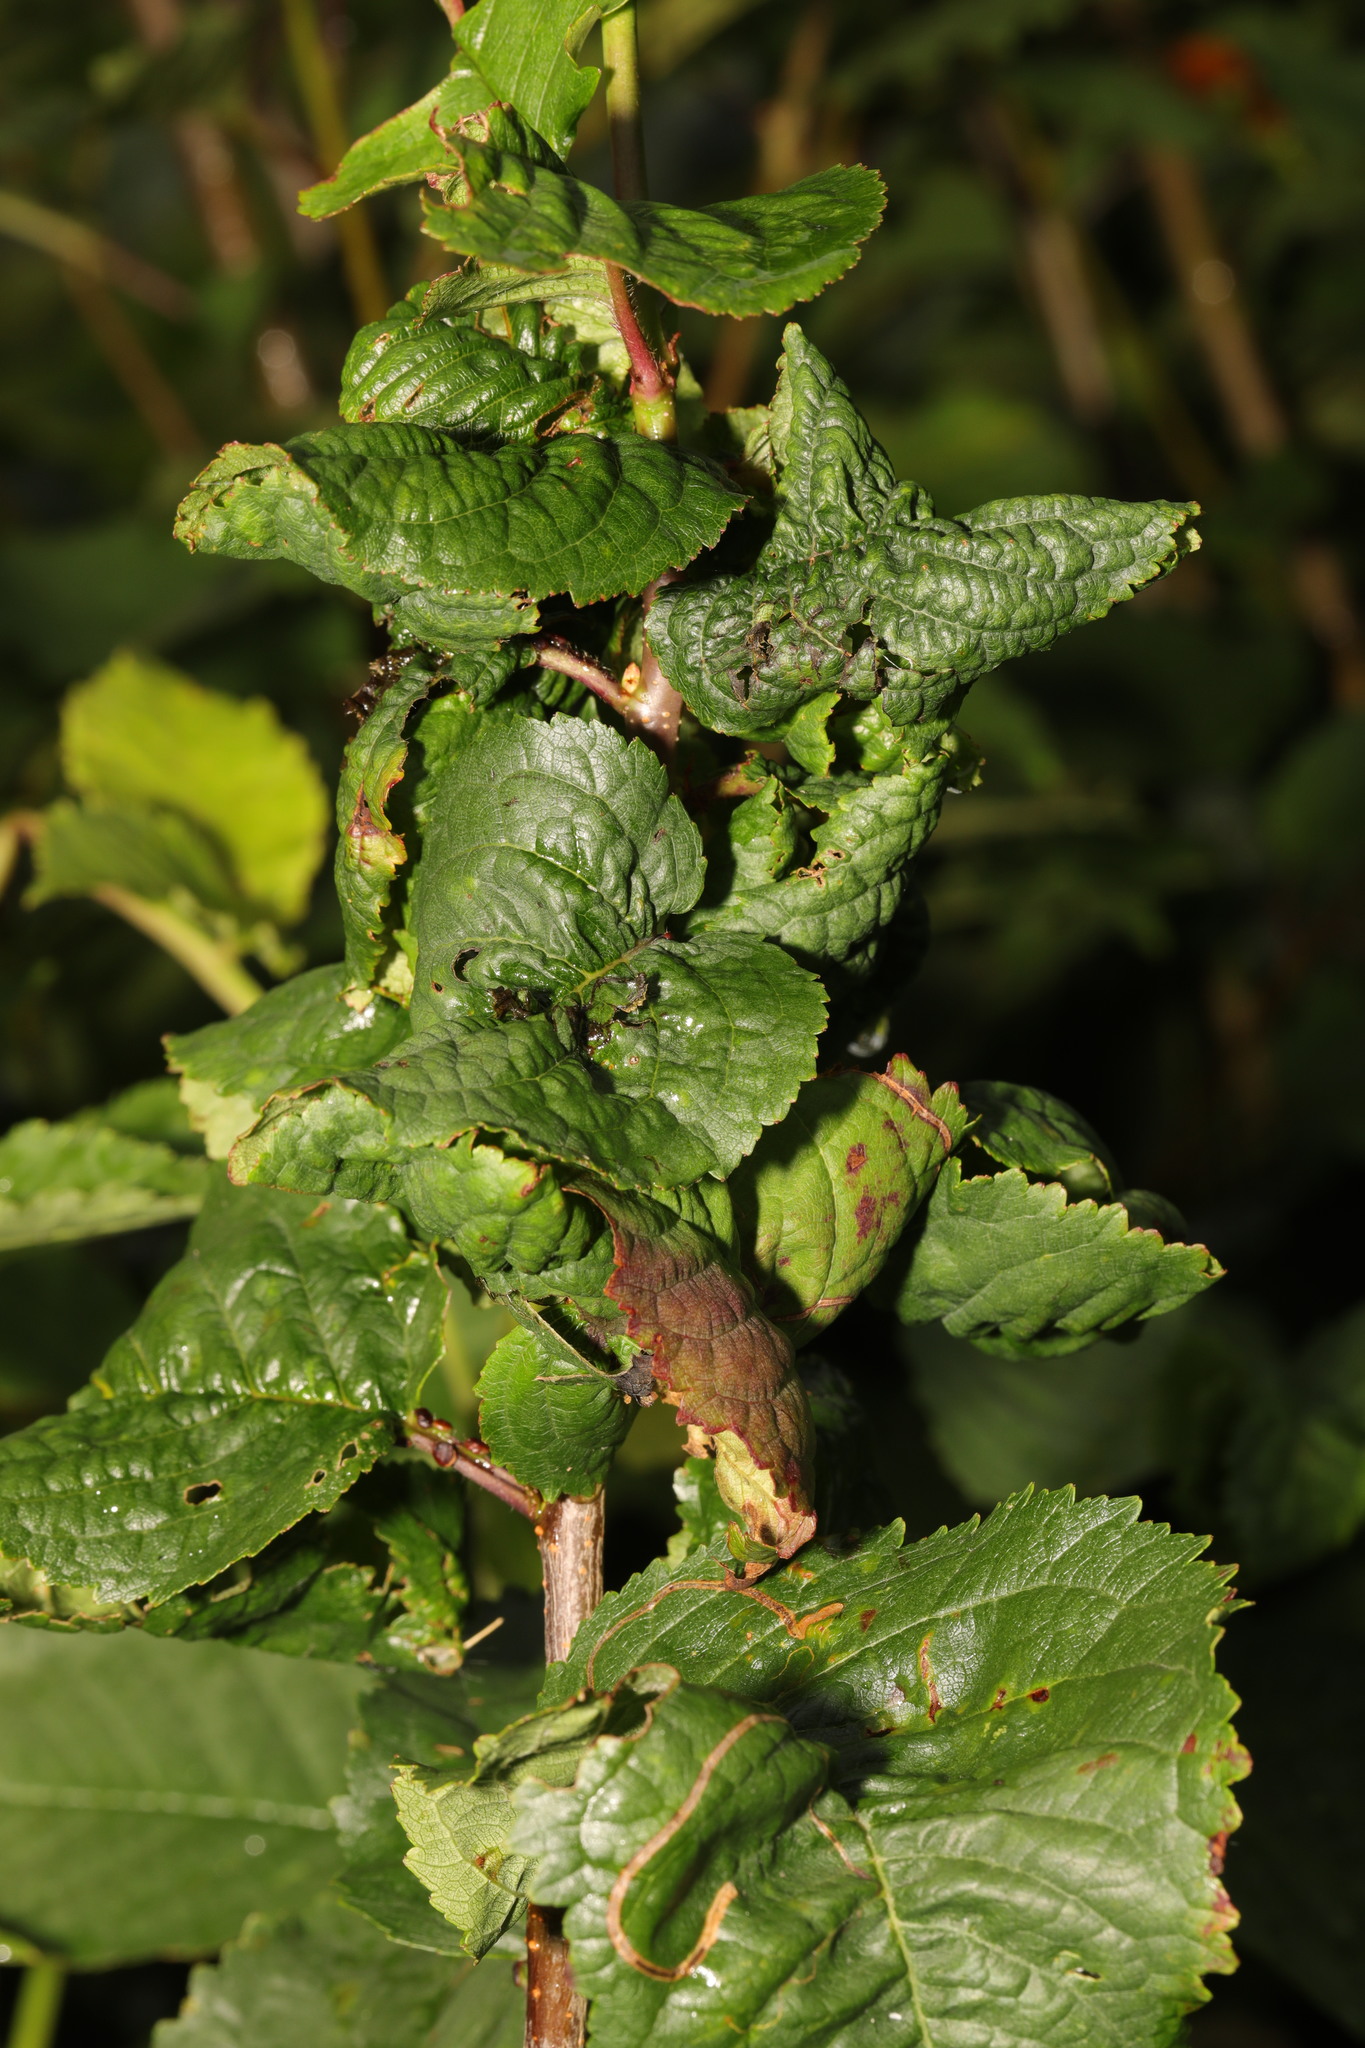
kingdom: Animalia
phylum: Arthropoda
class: Insecta
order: Hemiptera
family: Aphididae
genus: Myzus
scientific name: Myzus cerasi
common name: Black cherry aphid
